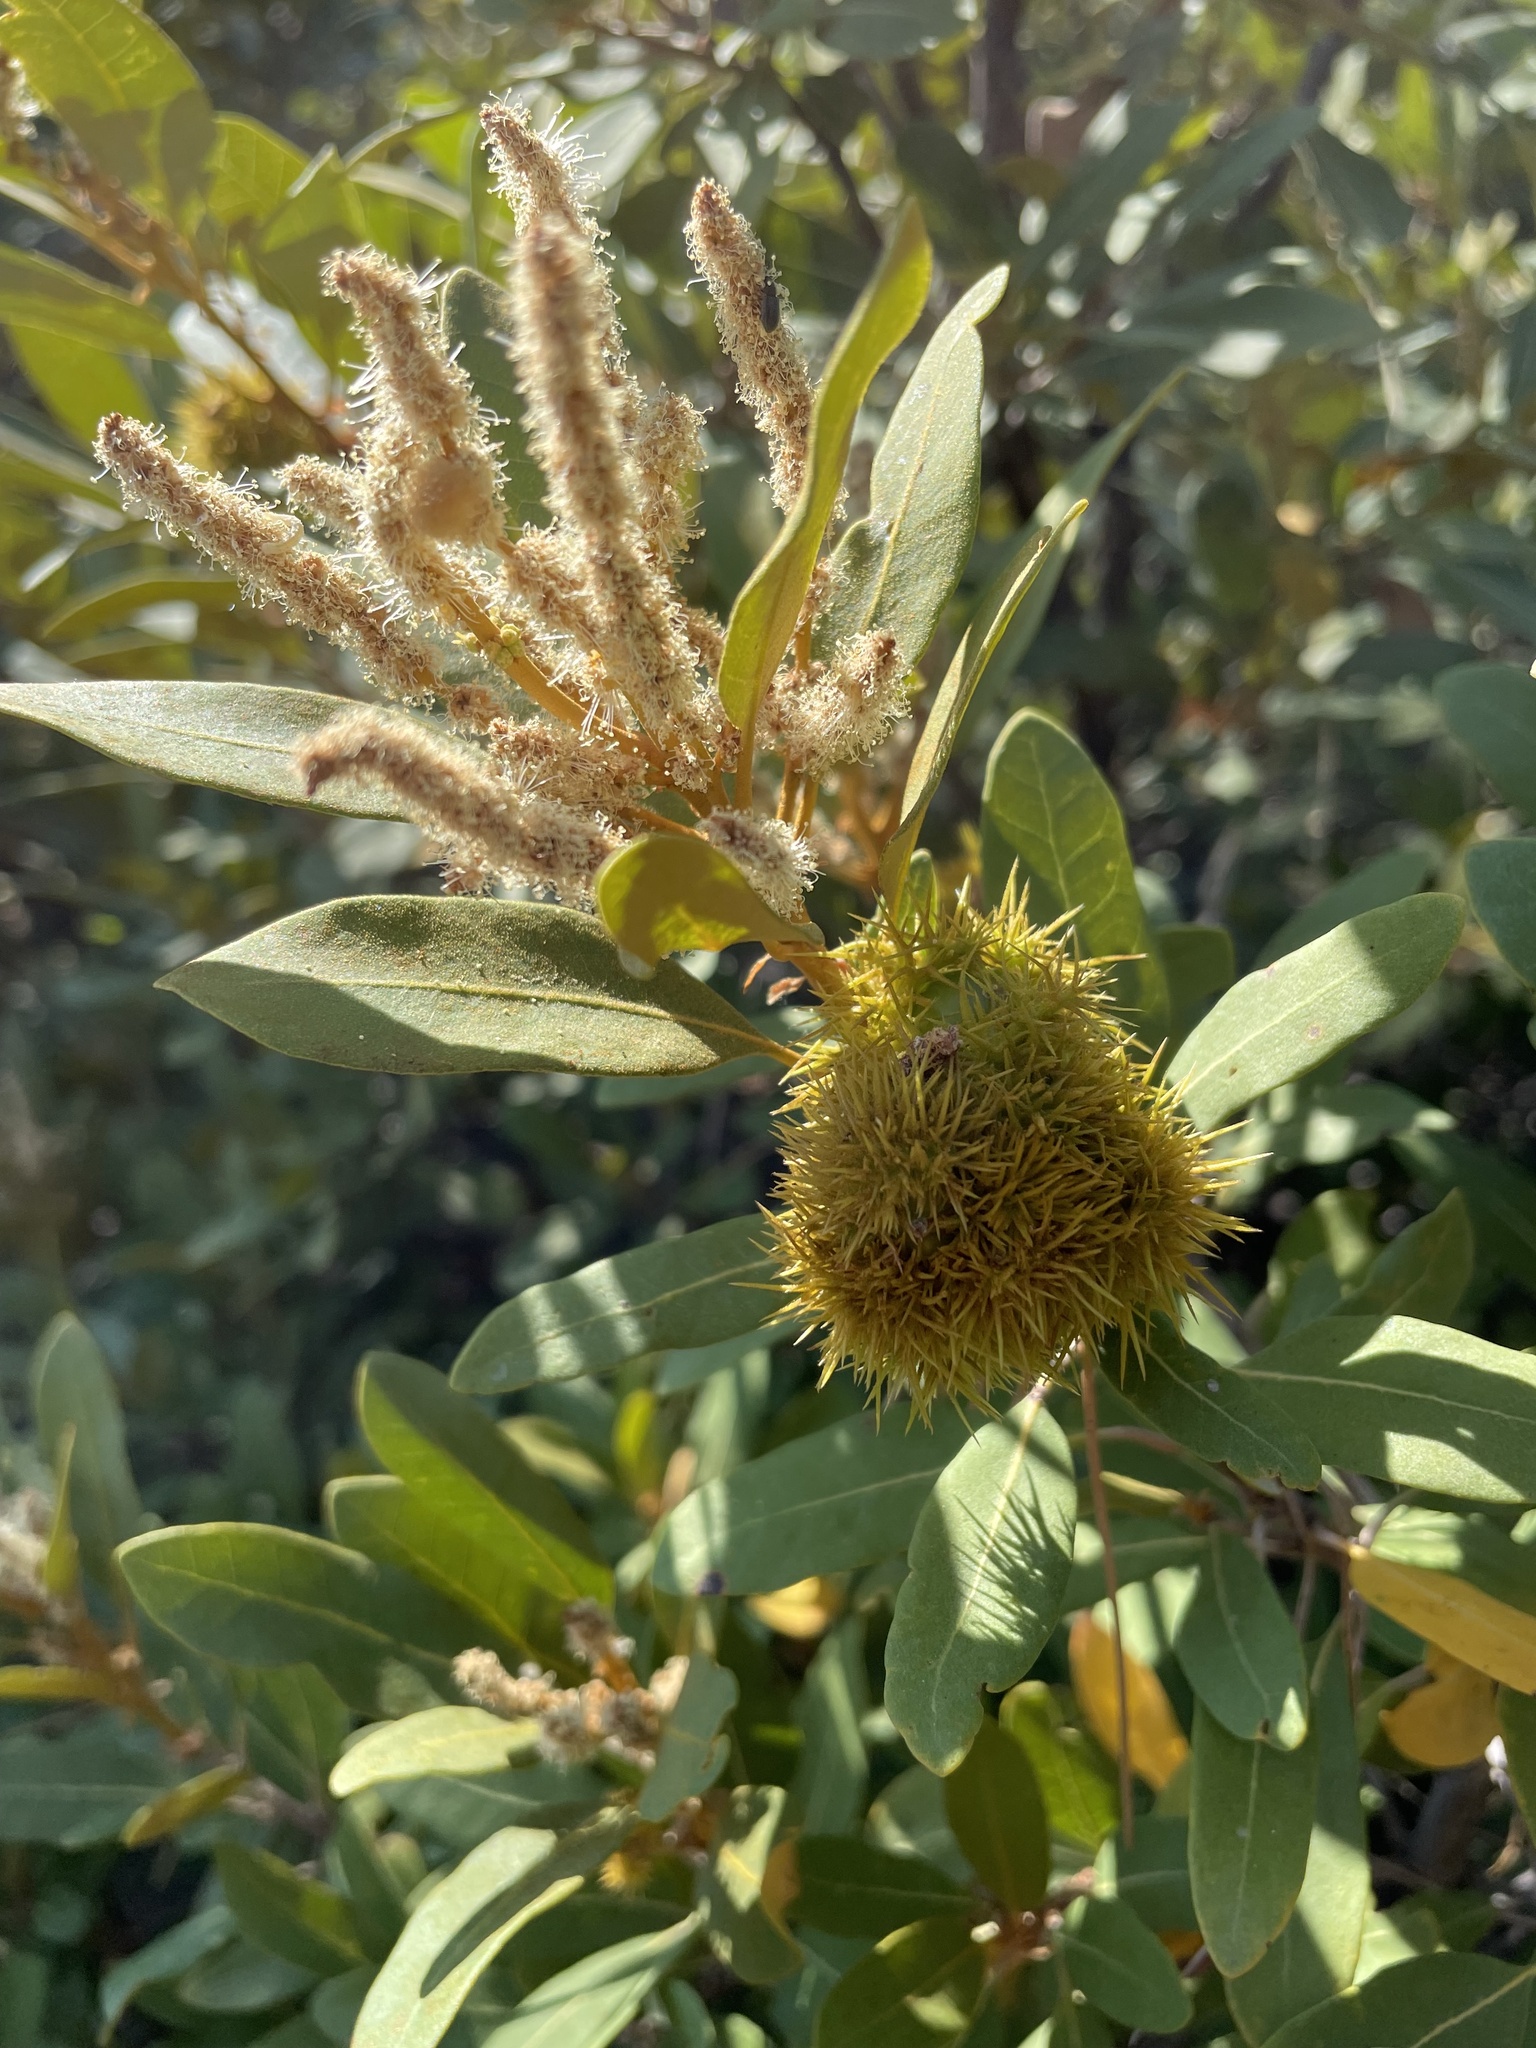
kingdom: Plantae
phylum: Tracheophyta
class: Magnoliopsida
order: Fagales
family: Fagaceae
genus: Chrysolepis
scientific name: Chrysolepis sempervirens
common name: Bush chinquapin
